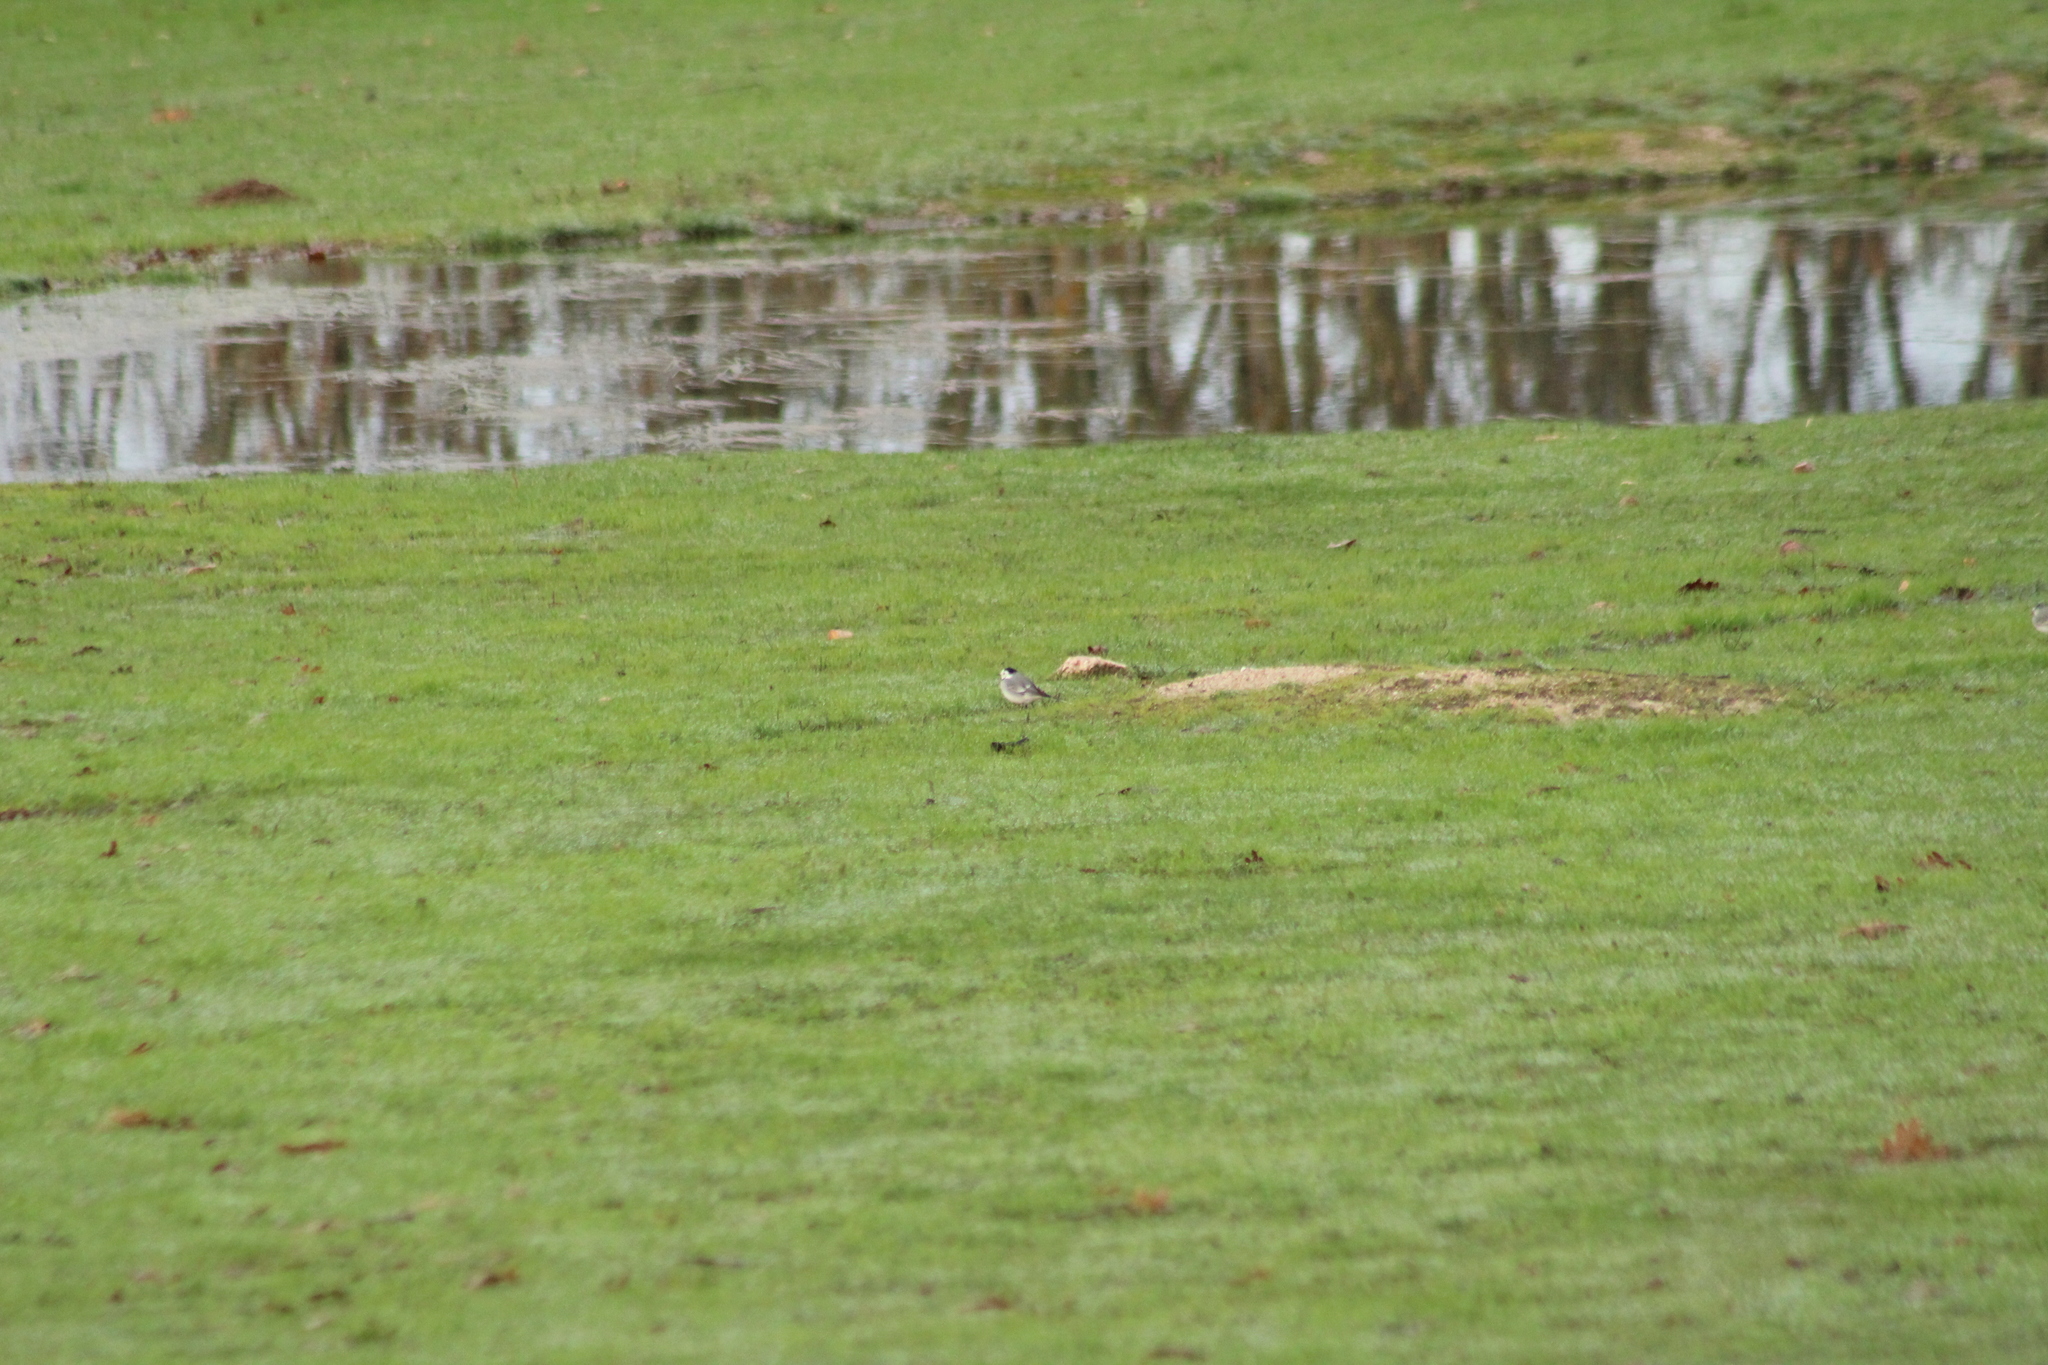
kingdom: Animalia
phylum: Chordata
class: Aves
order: Passeriformes
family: Motacillidae
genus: Motacilla
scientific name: Motacilla alba
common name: White wagtail
